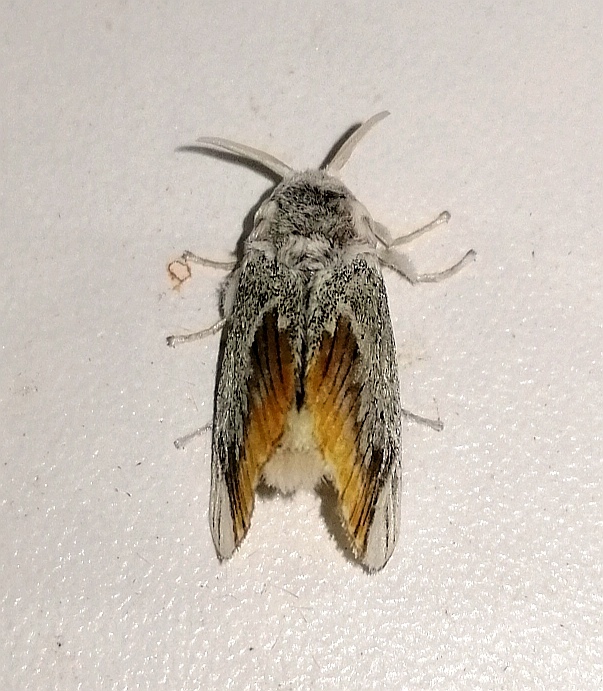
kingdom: Animalia
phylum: Arthropoda
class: Insecta
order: Lepidoptera
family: Megalopygidae
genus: Mesoscia
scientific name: Mesoscia terminata
